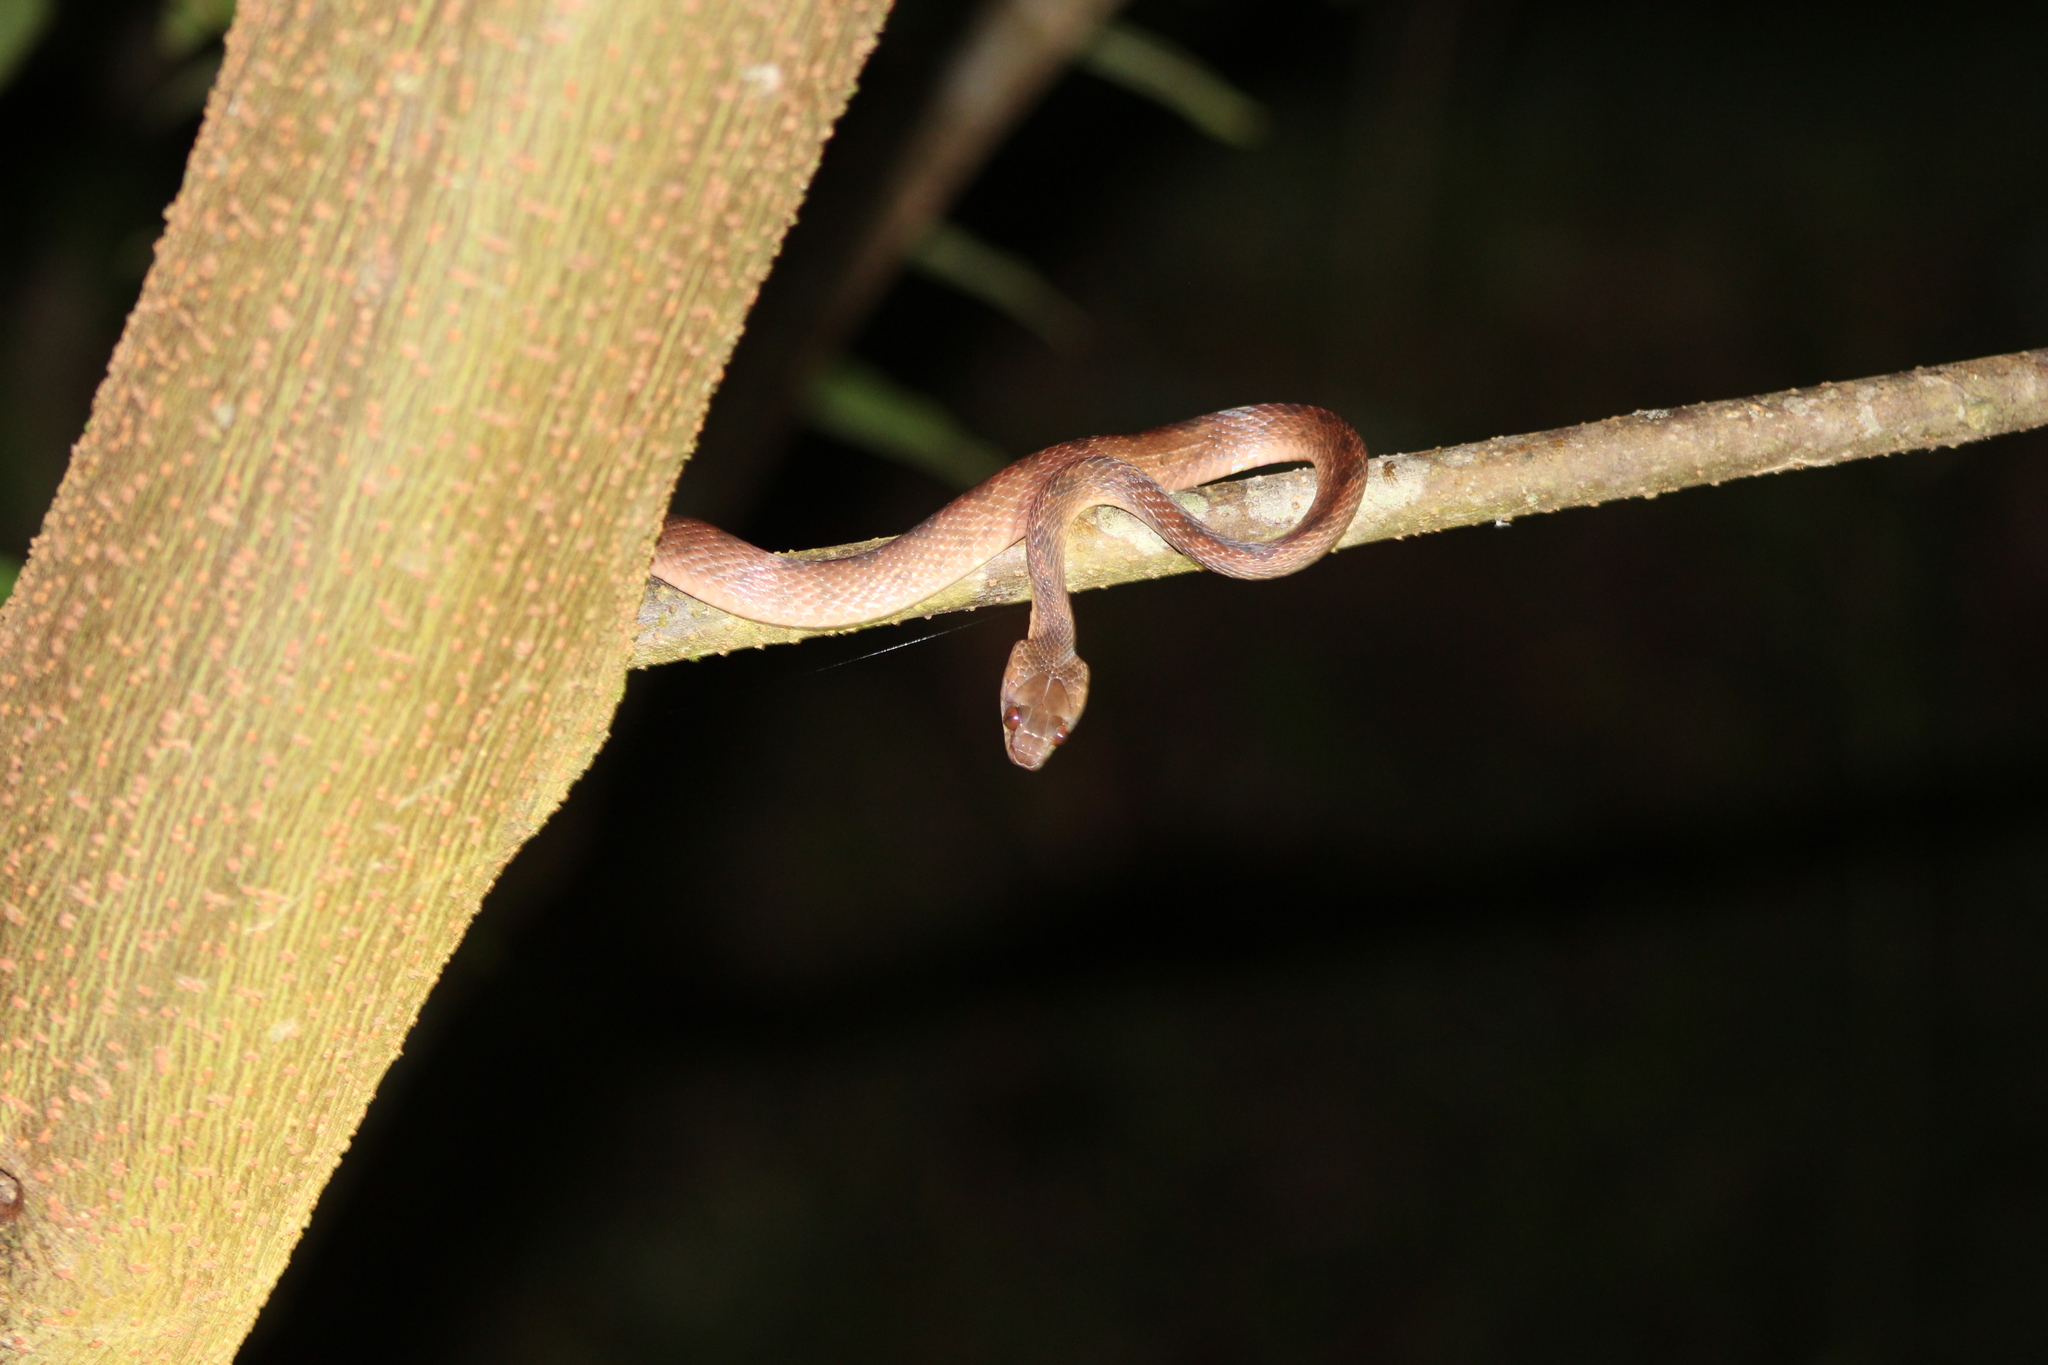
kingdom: Animalia
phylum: Chordata
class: Squamata
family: Colubridae
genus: Leptodeira
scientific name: Leptodeira ornata
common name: Northern cat-eyed snake
